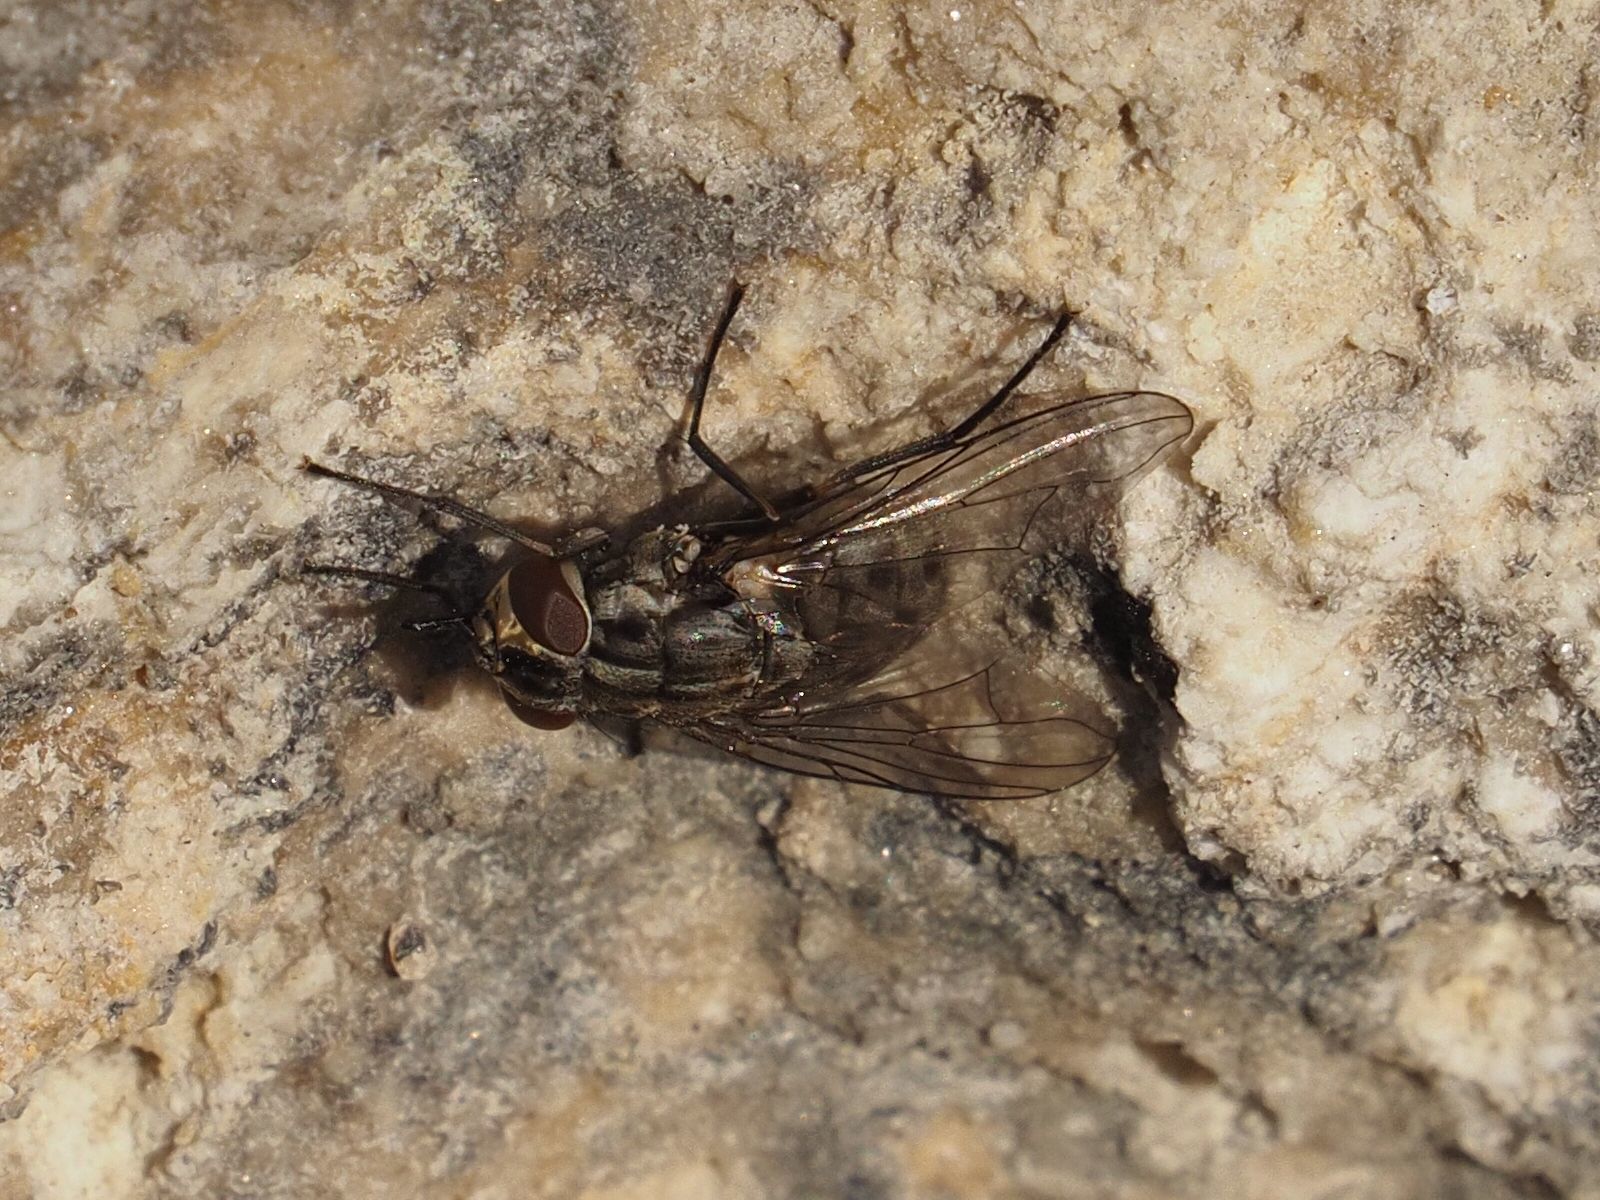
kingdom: Animalia
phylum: Arthropoda
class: Insecta
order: Diptera
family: Muscidae
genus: Stomoxys
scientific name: Stomoxys calcitrans
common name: Stable fly
